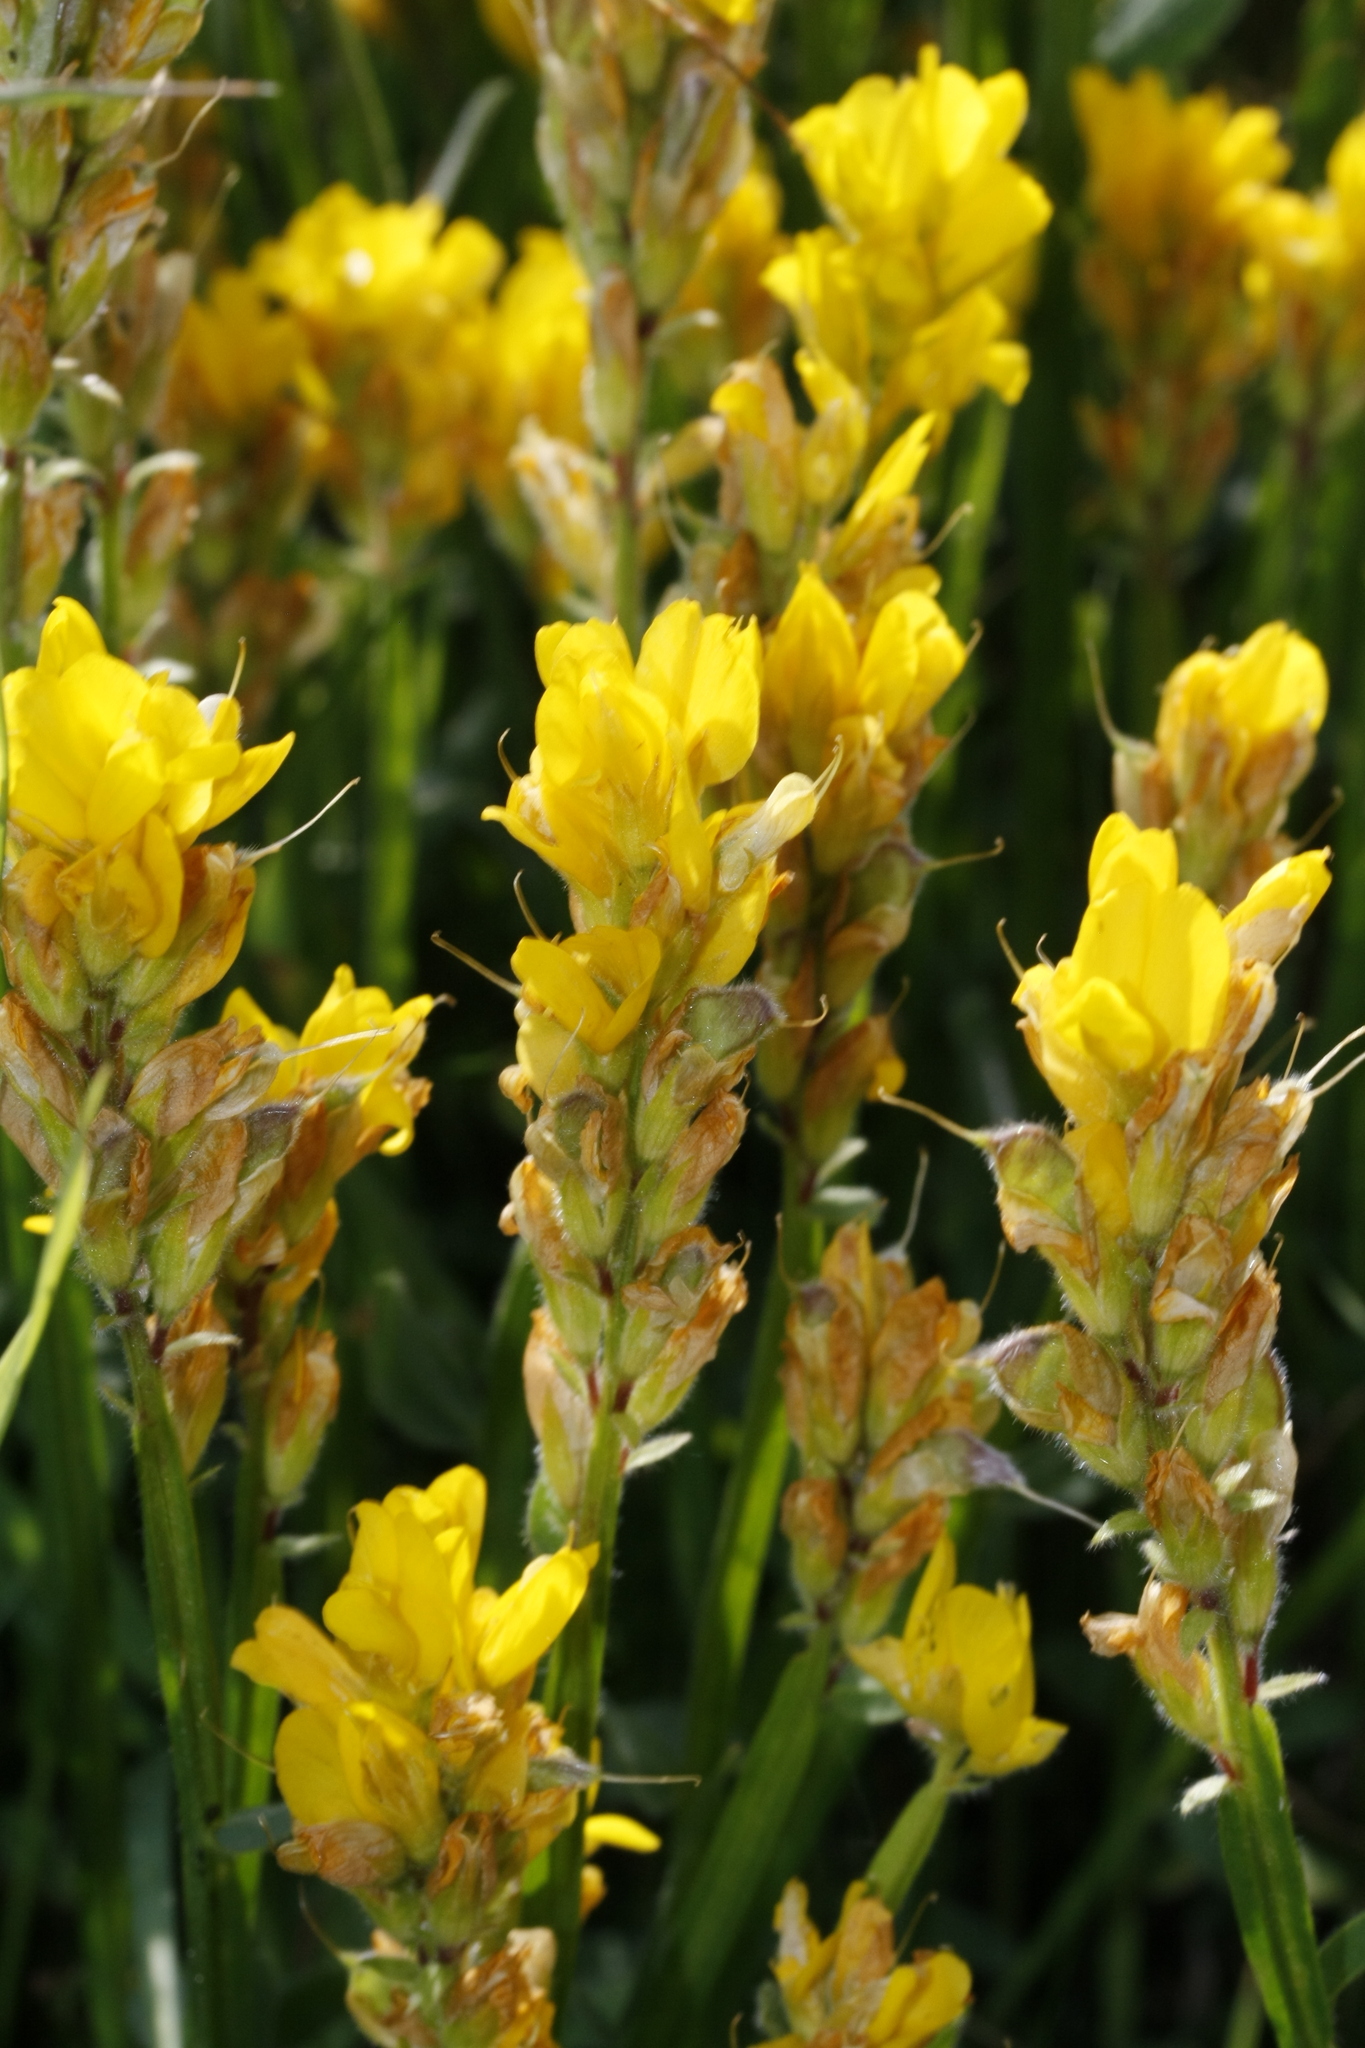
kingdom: Plantae
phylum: Tracheophyta
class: Magnoliopsida
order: Fabales
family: Fabaceae
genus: Genista
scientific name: Genista sagittalis
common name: Winged greenweed
